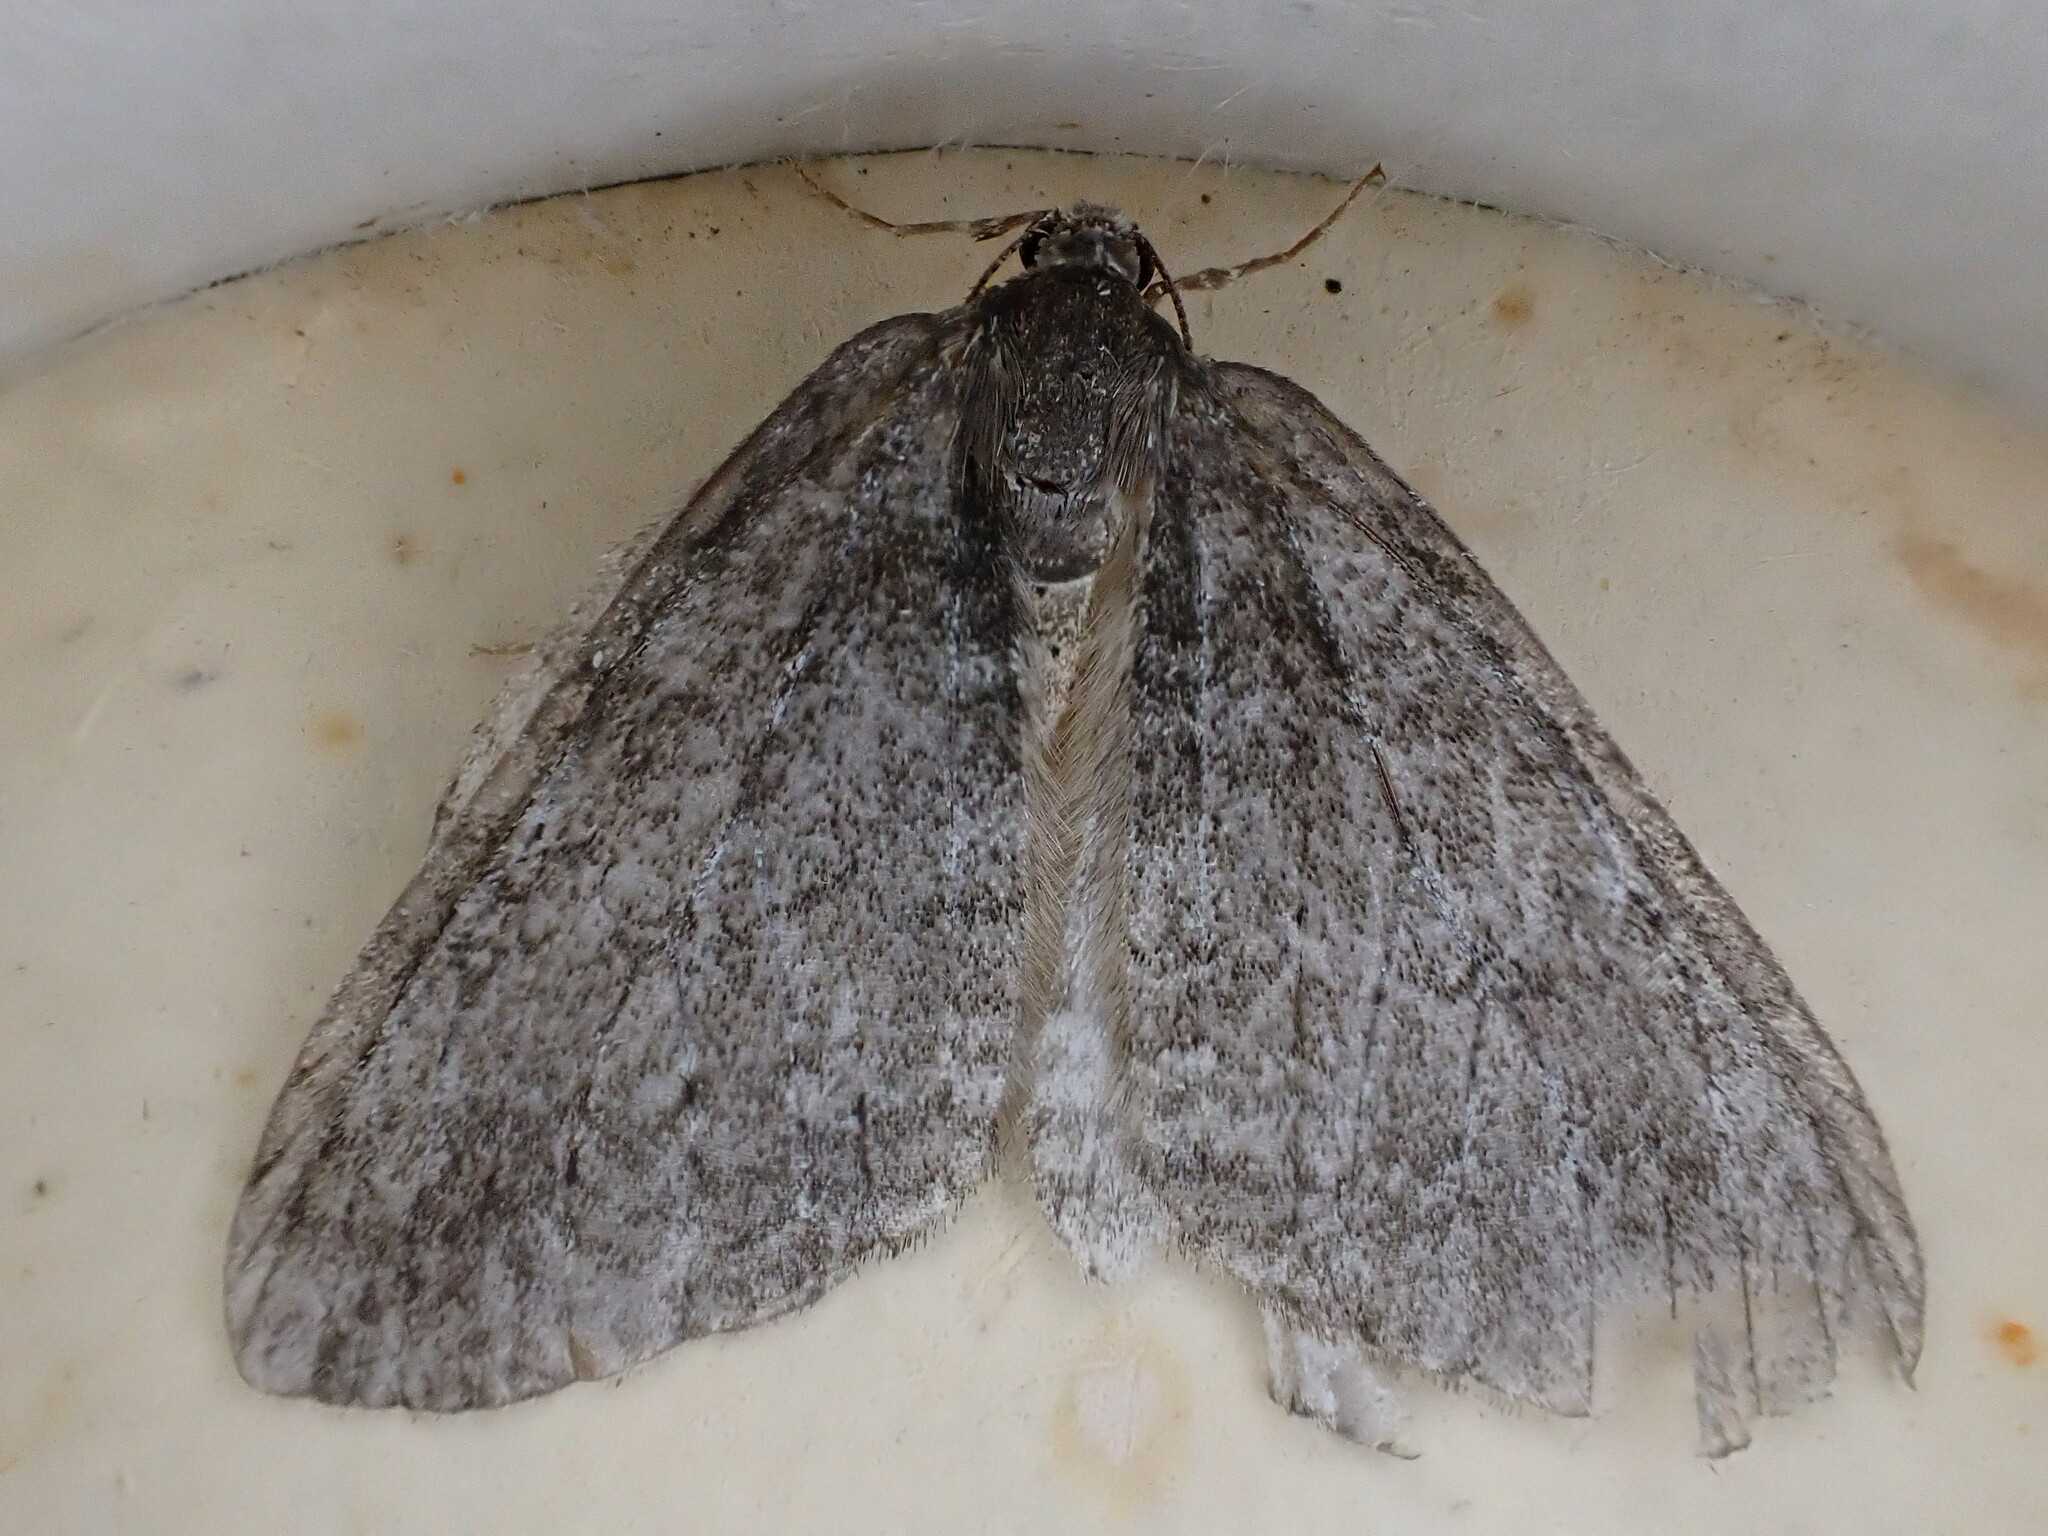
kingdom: Animalia
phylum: Arthropoda
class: Insecta
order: Lepidoptera
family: Geometridae
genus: Epirrita
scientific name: Epirrita
